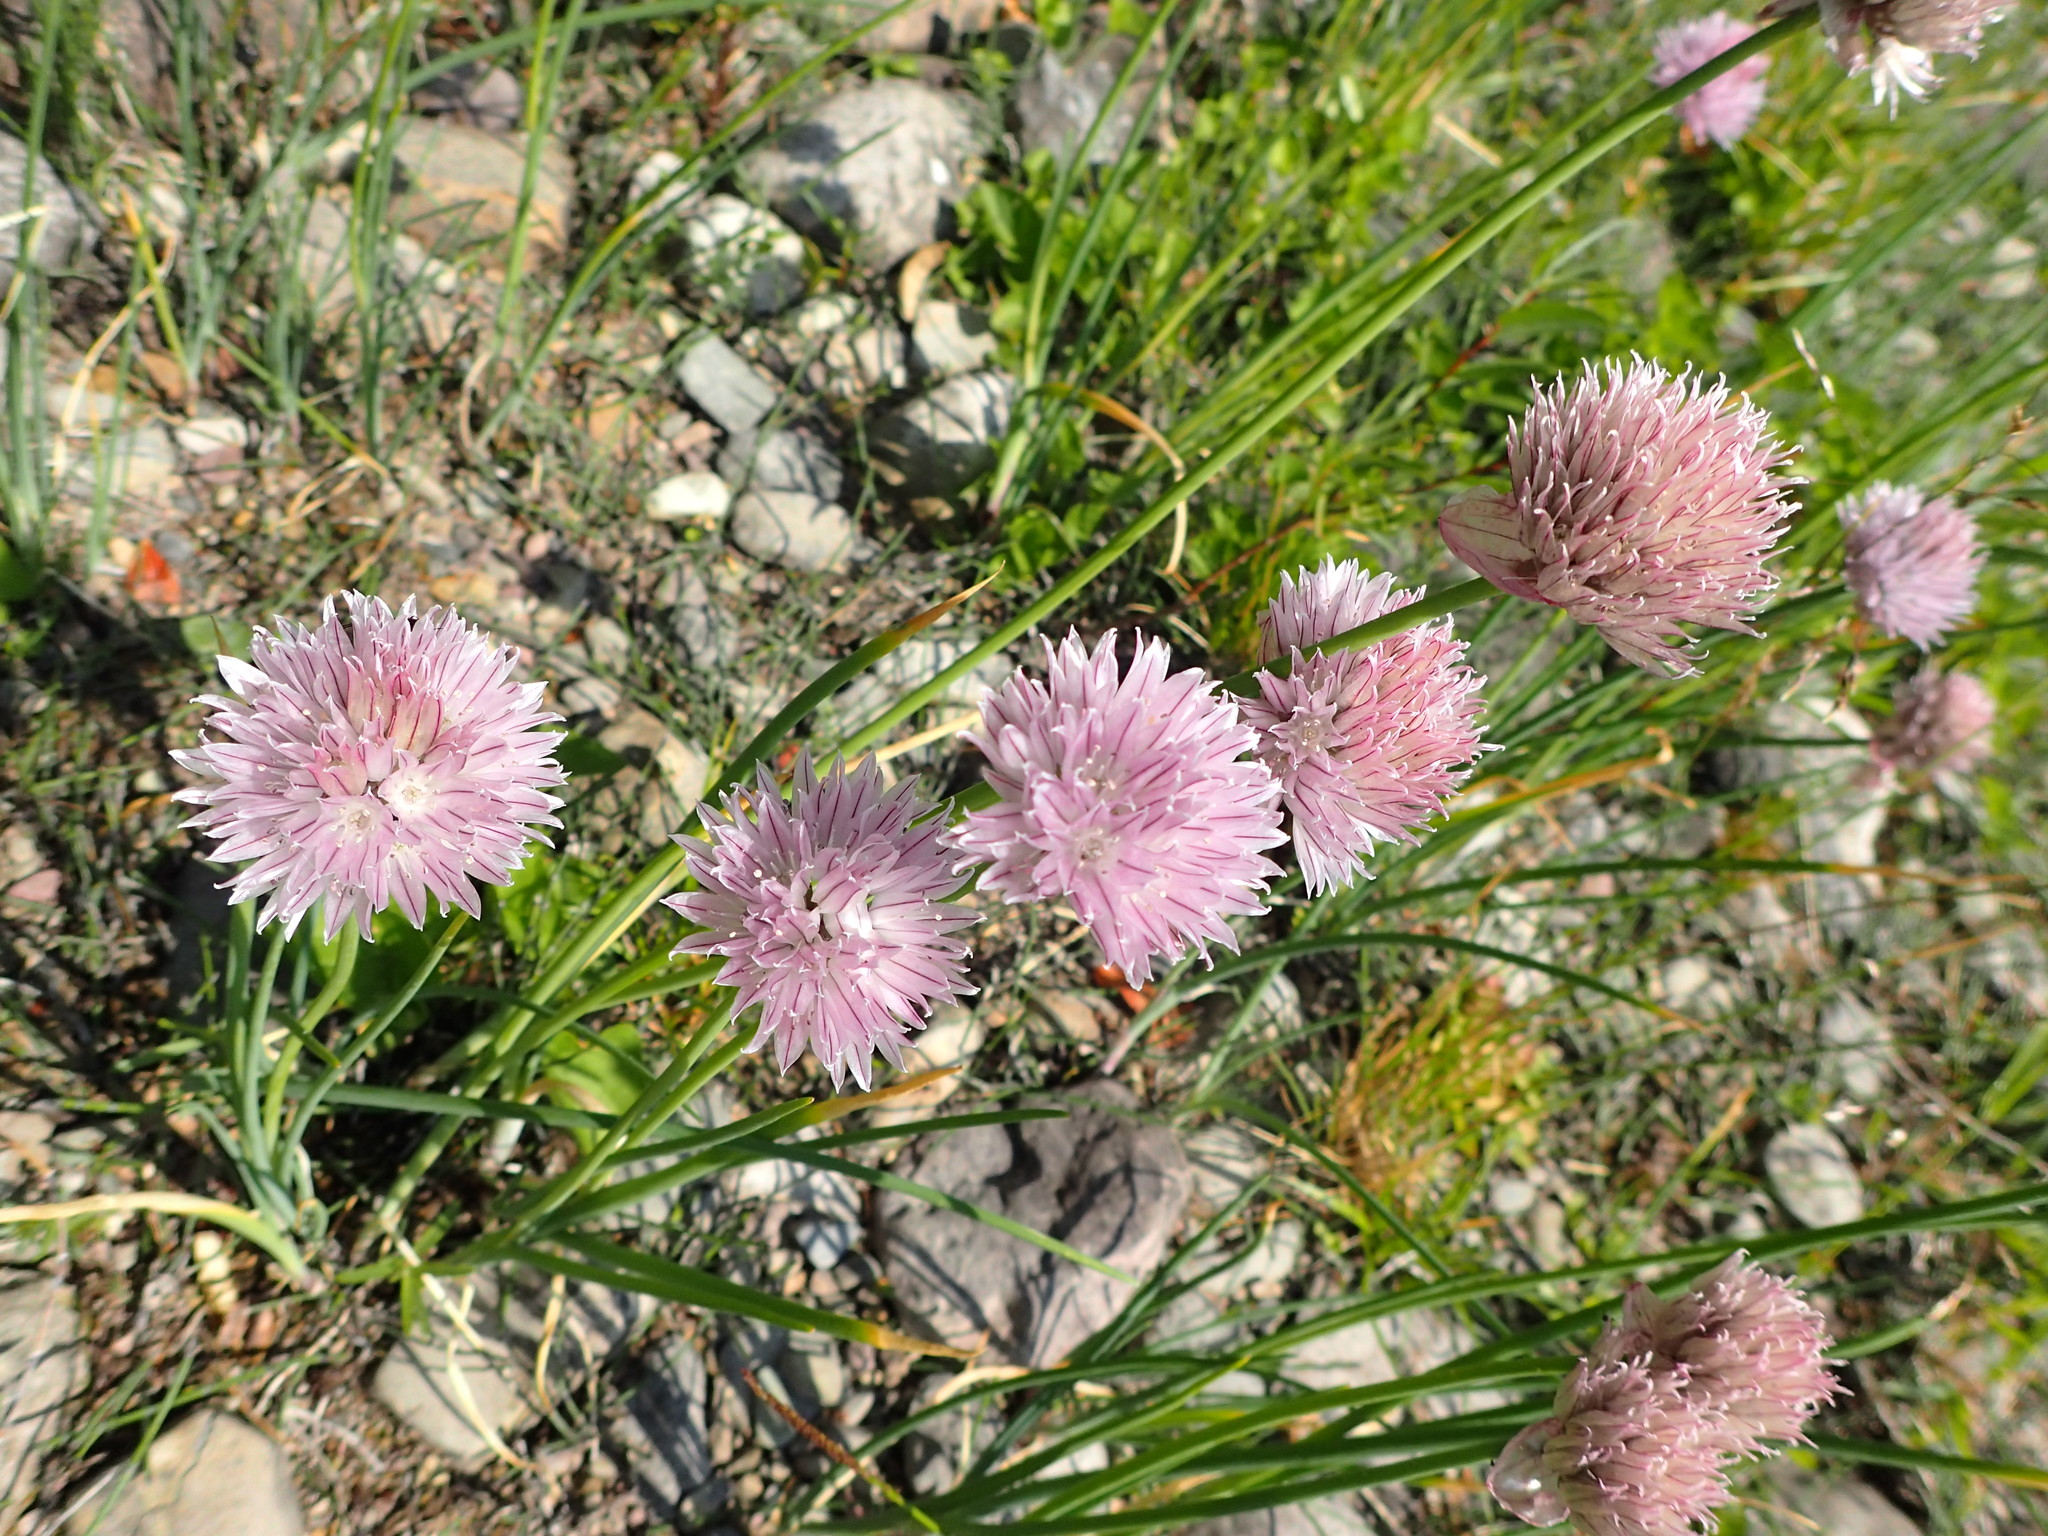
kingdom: Plantae
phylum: Tracheophyta
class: Liliopsida
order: Asparagales
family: Amaryllidaceae
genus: Allium
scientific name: Allium schoenoprasum
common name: Chives
